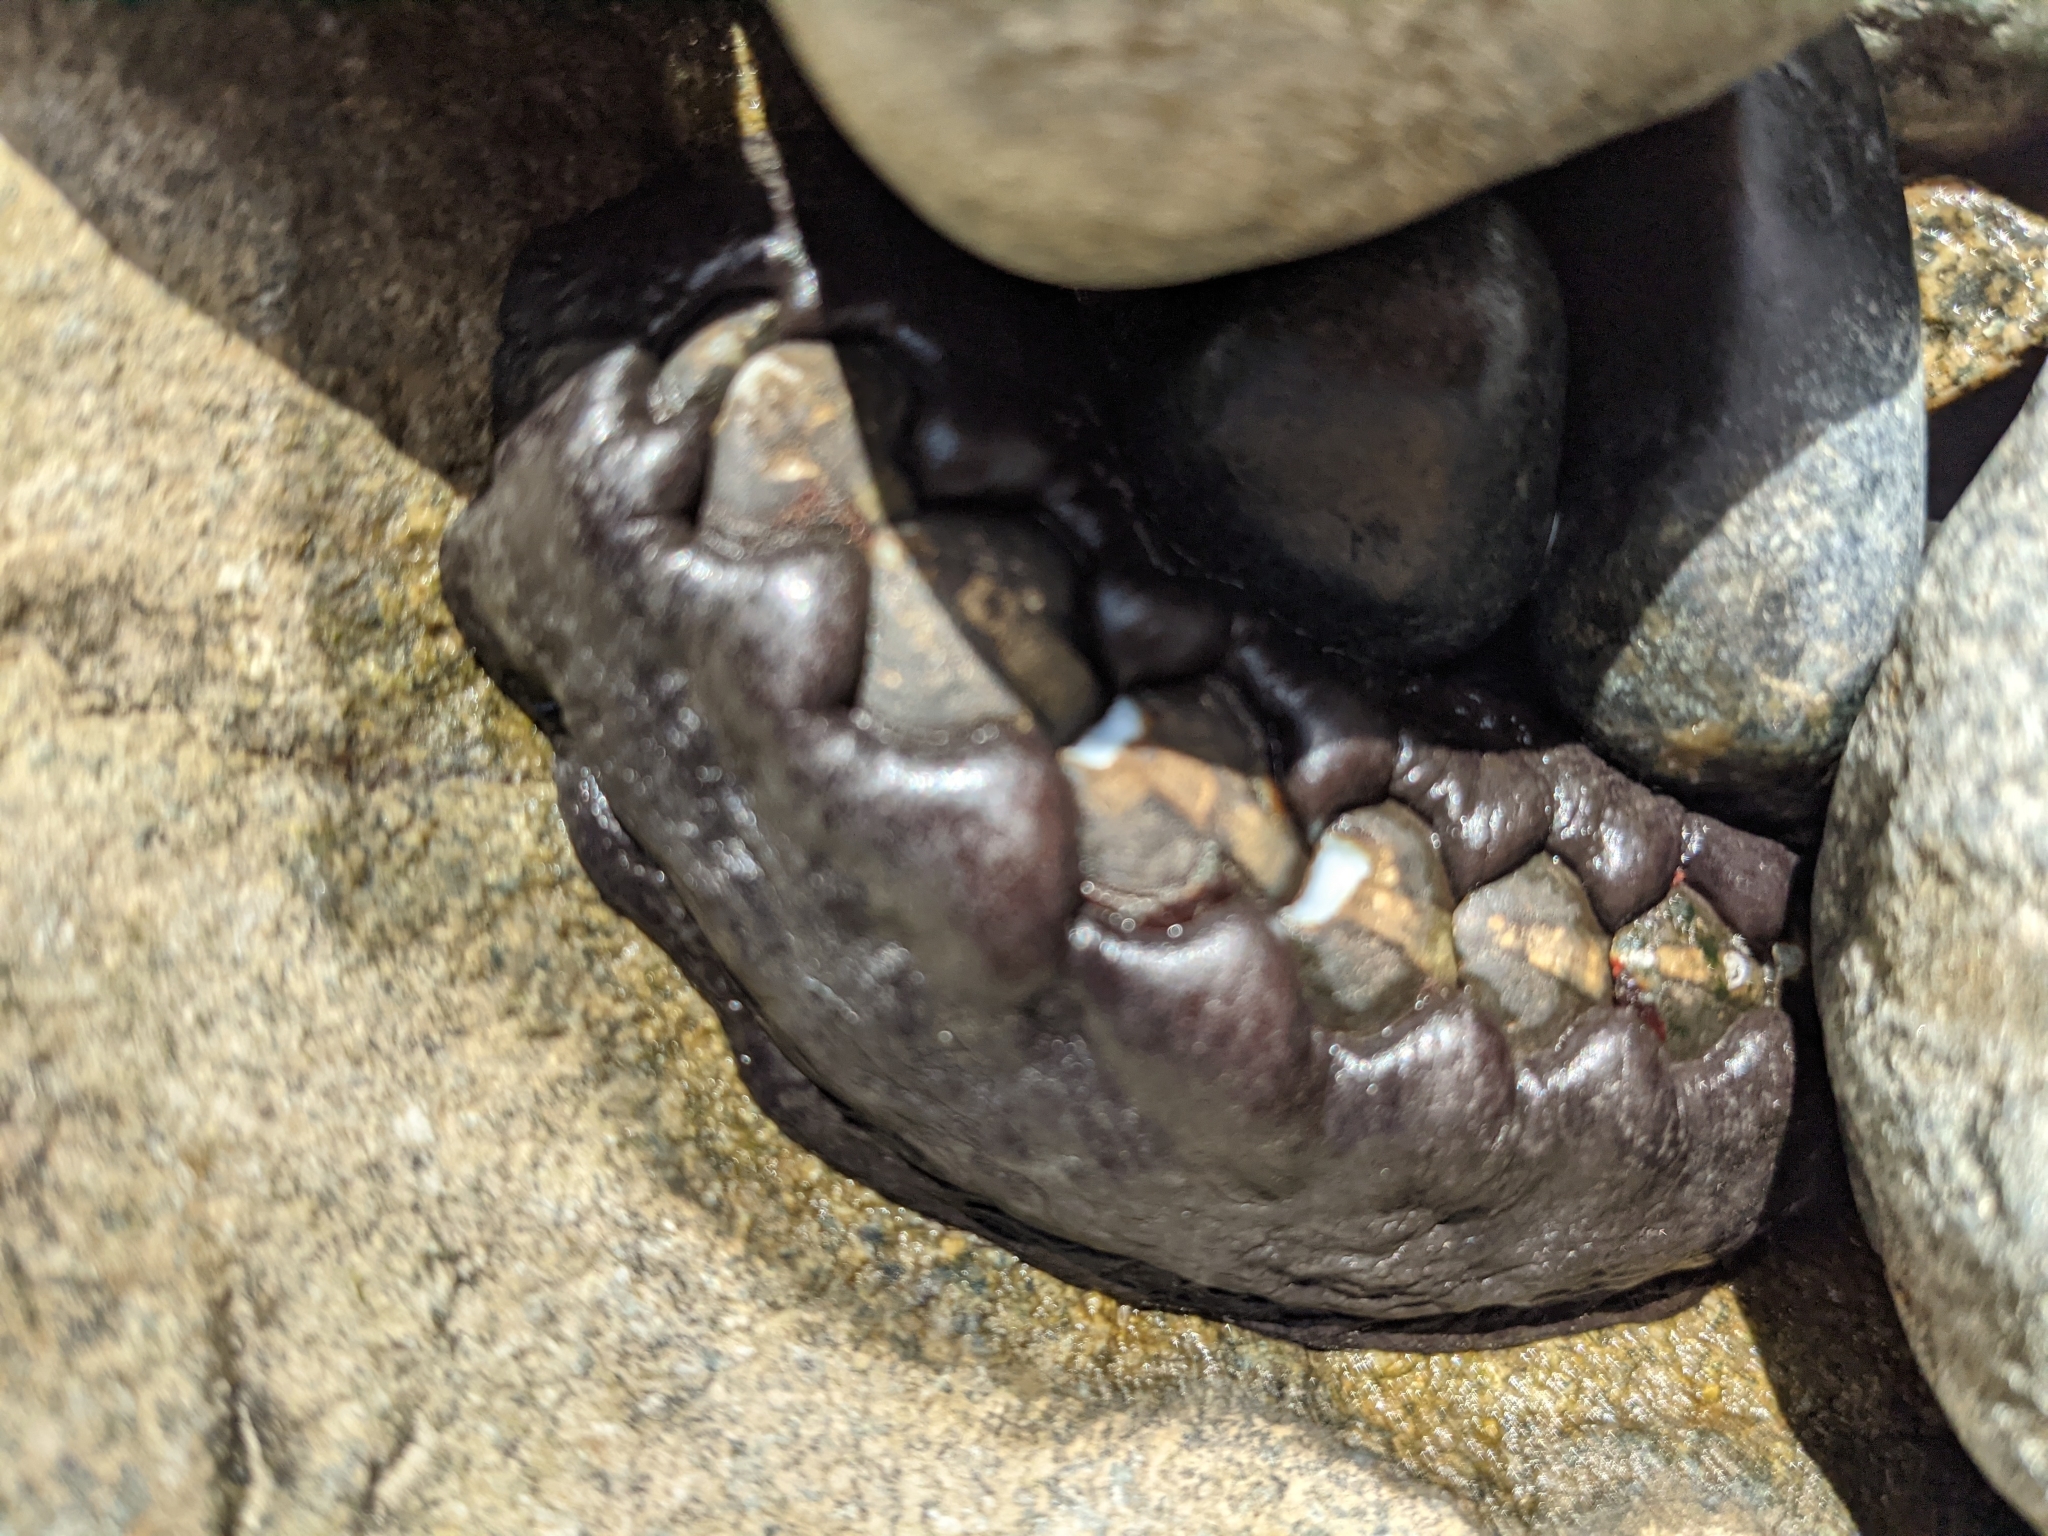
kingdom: Animalia
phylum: Mollusca
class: Polyplacophora
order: Chitonida
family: Mopaliidae
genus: Katharina
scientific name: Katharina tunicata
